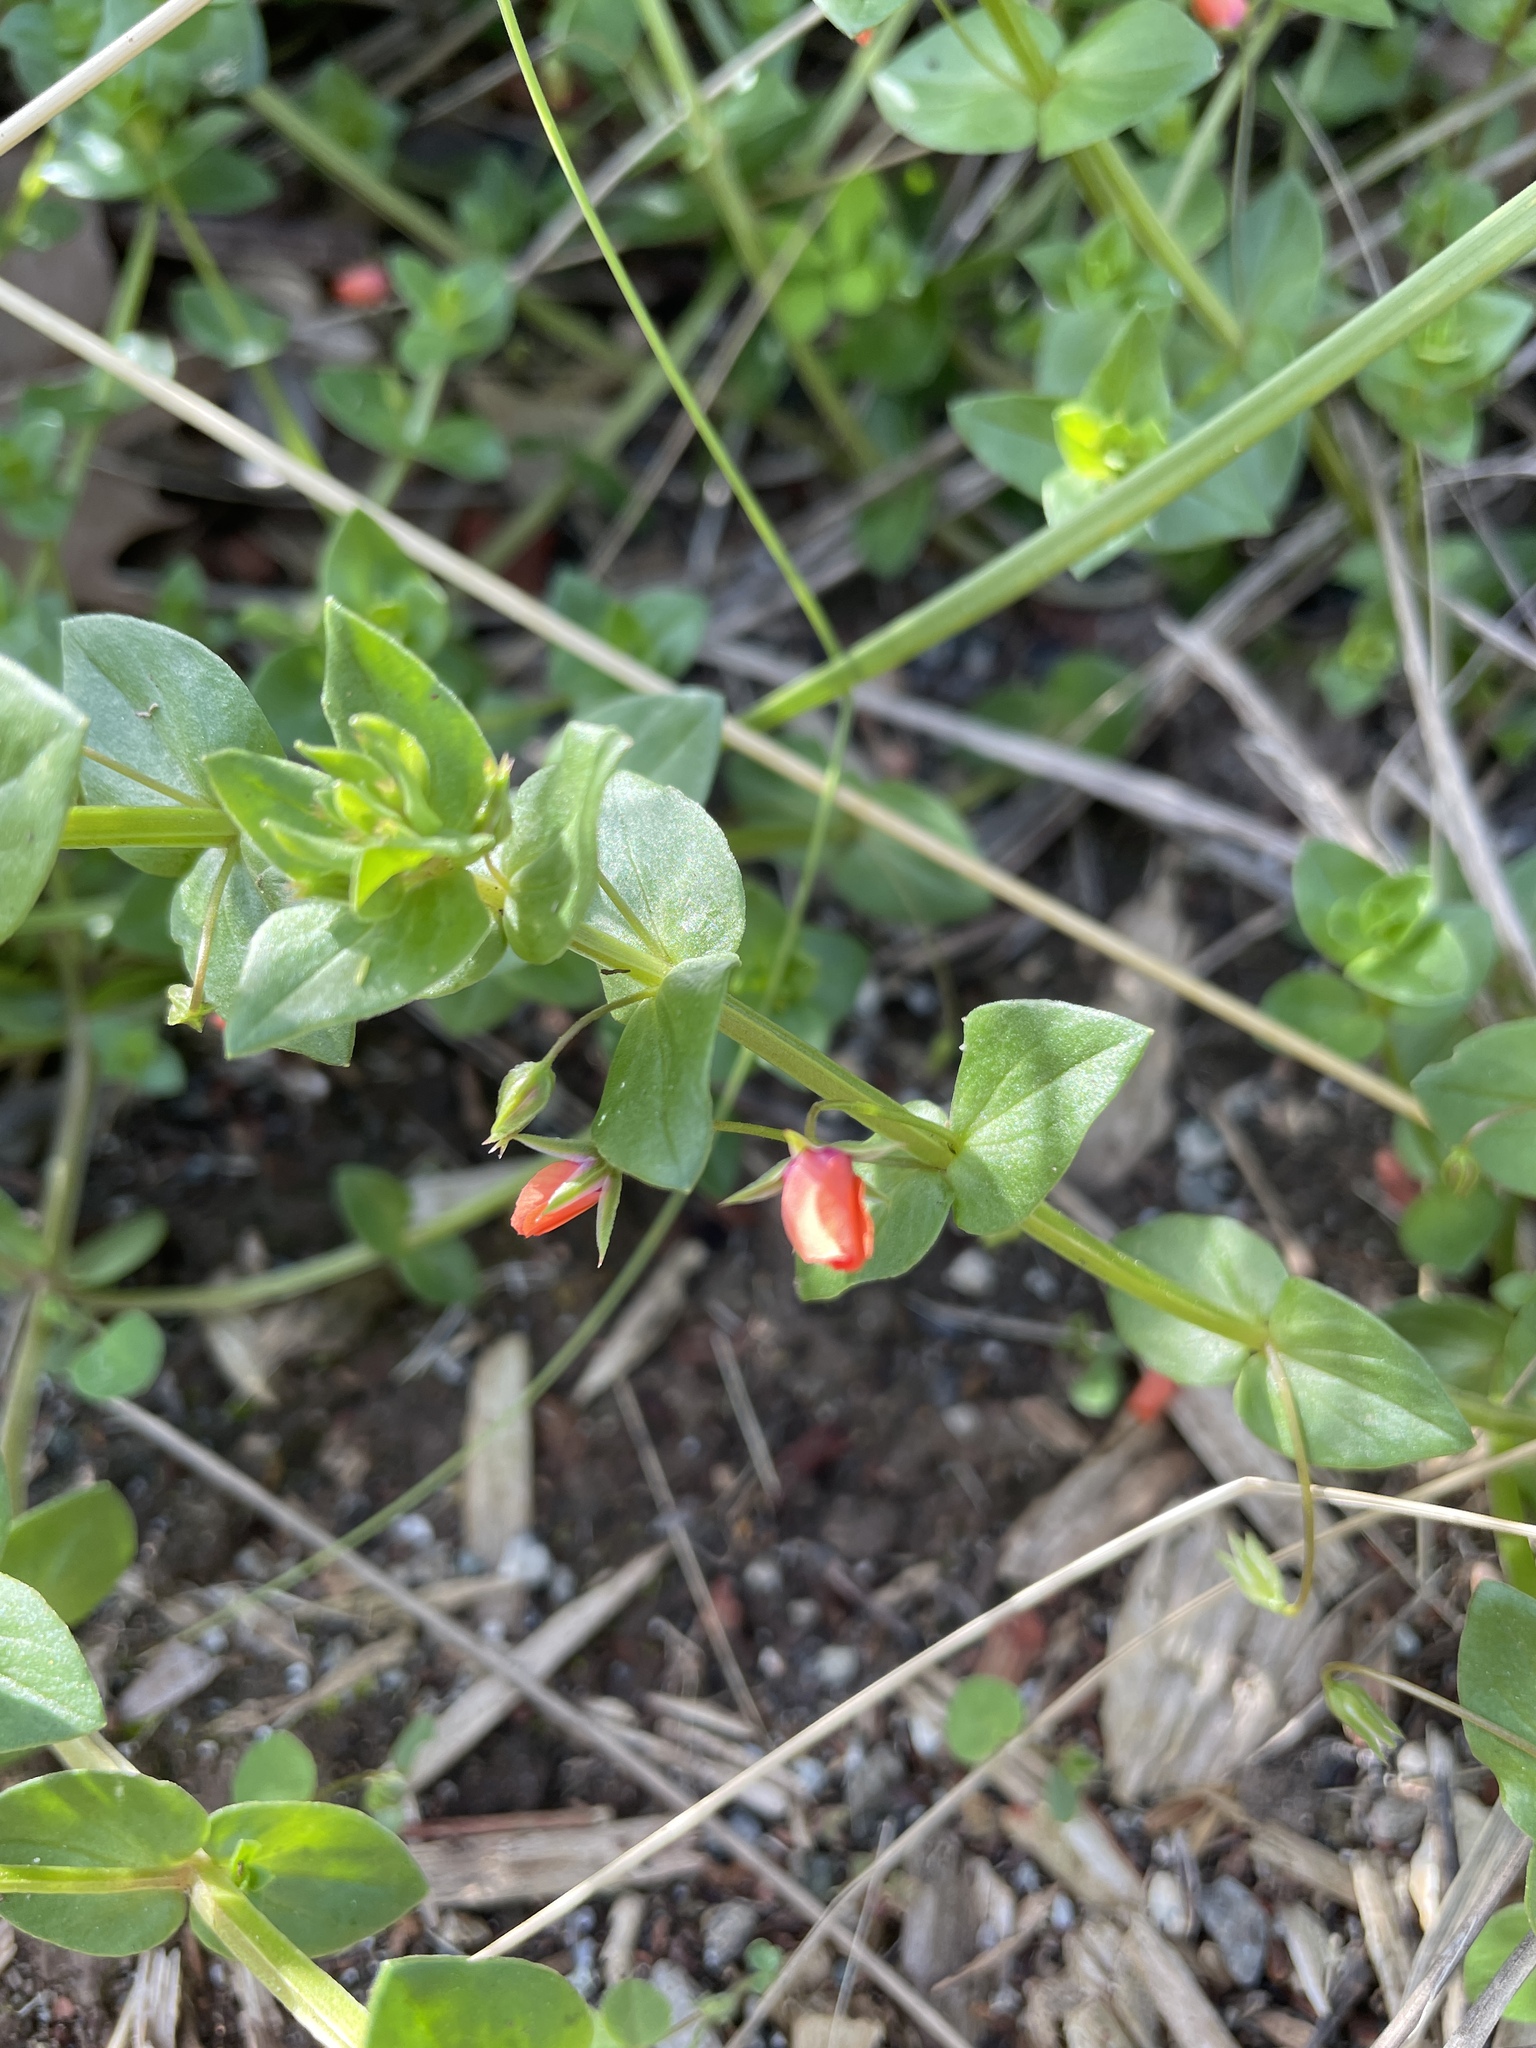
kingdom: Plantae
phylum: Tracheophyta
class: Magnoliopsida
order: Ericales
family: Primulaceae
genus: Lysimachia
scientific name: Lysimachia arvensis
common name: Scarlet pimpernel
